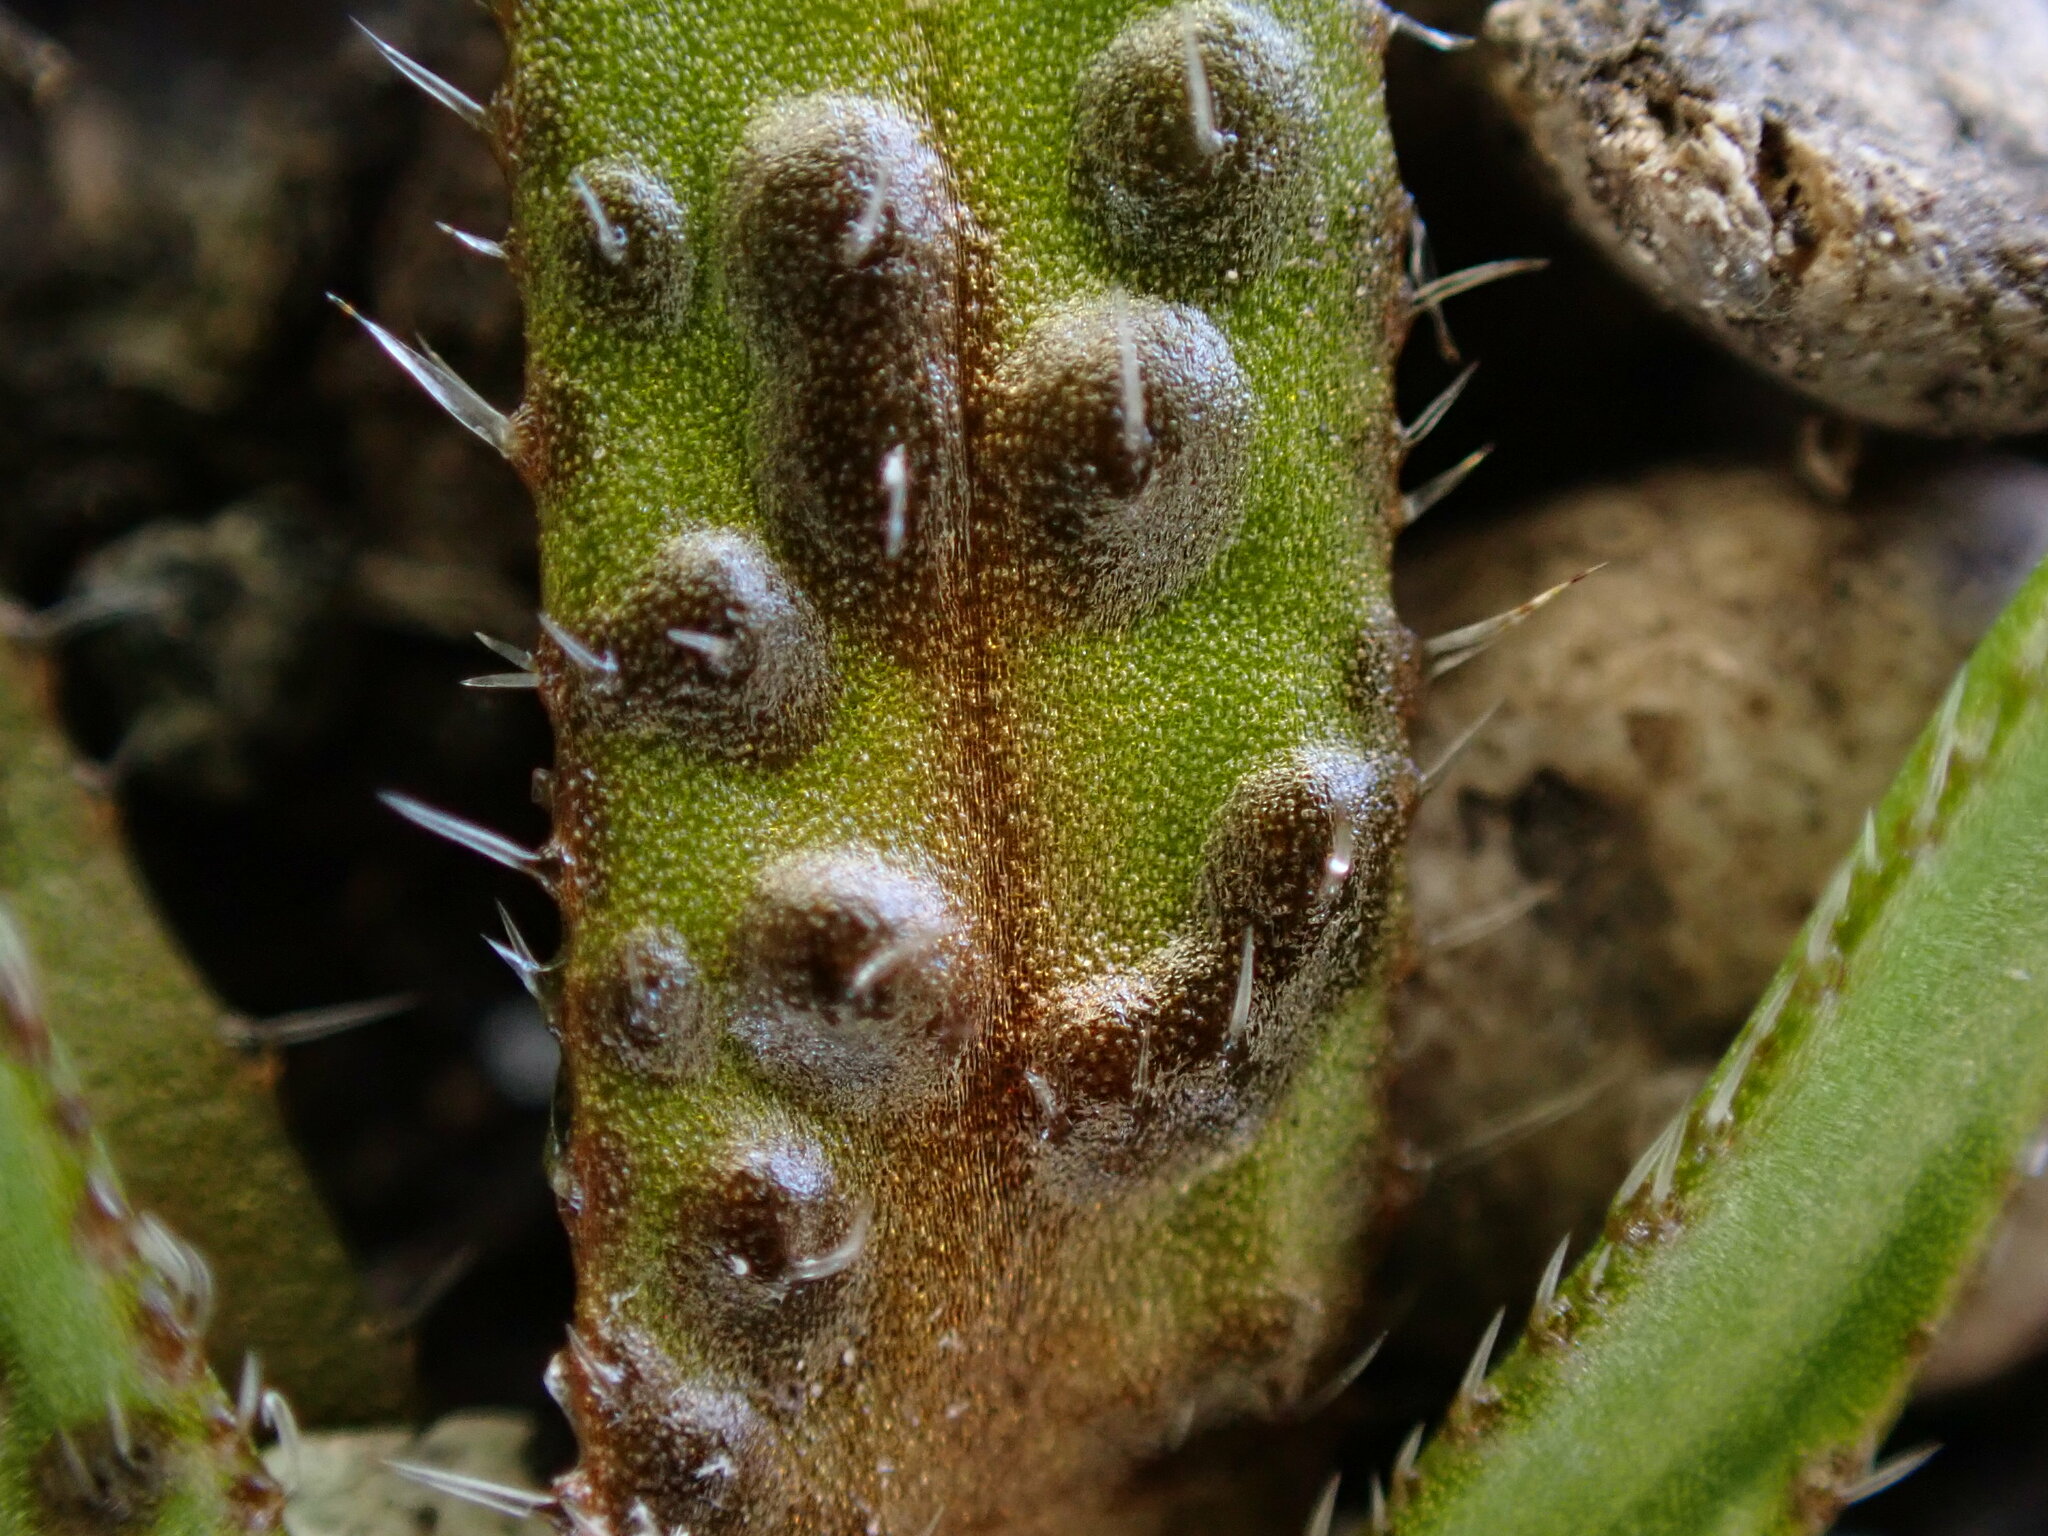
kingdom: Plantae
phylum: Tracheophyta
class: Magnoliopsida
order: Boraginales
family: Boraginaceae
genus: Plagiobothrys
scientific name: Plagiobothrys scouleri
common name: White forget-me-not
